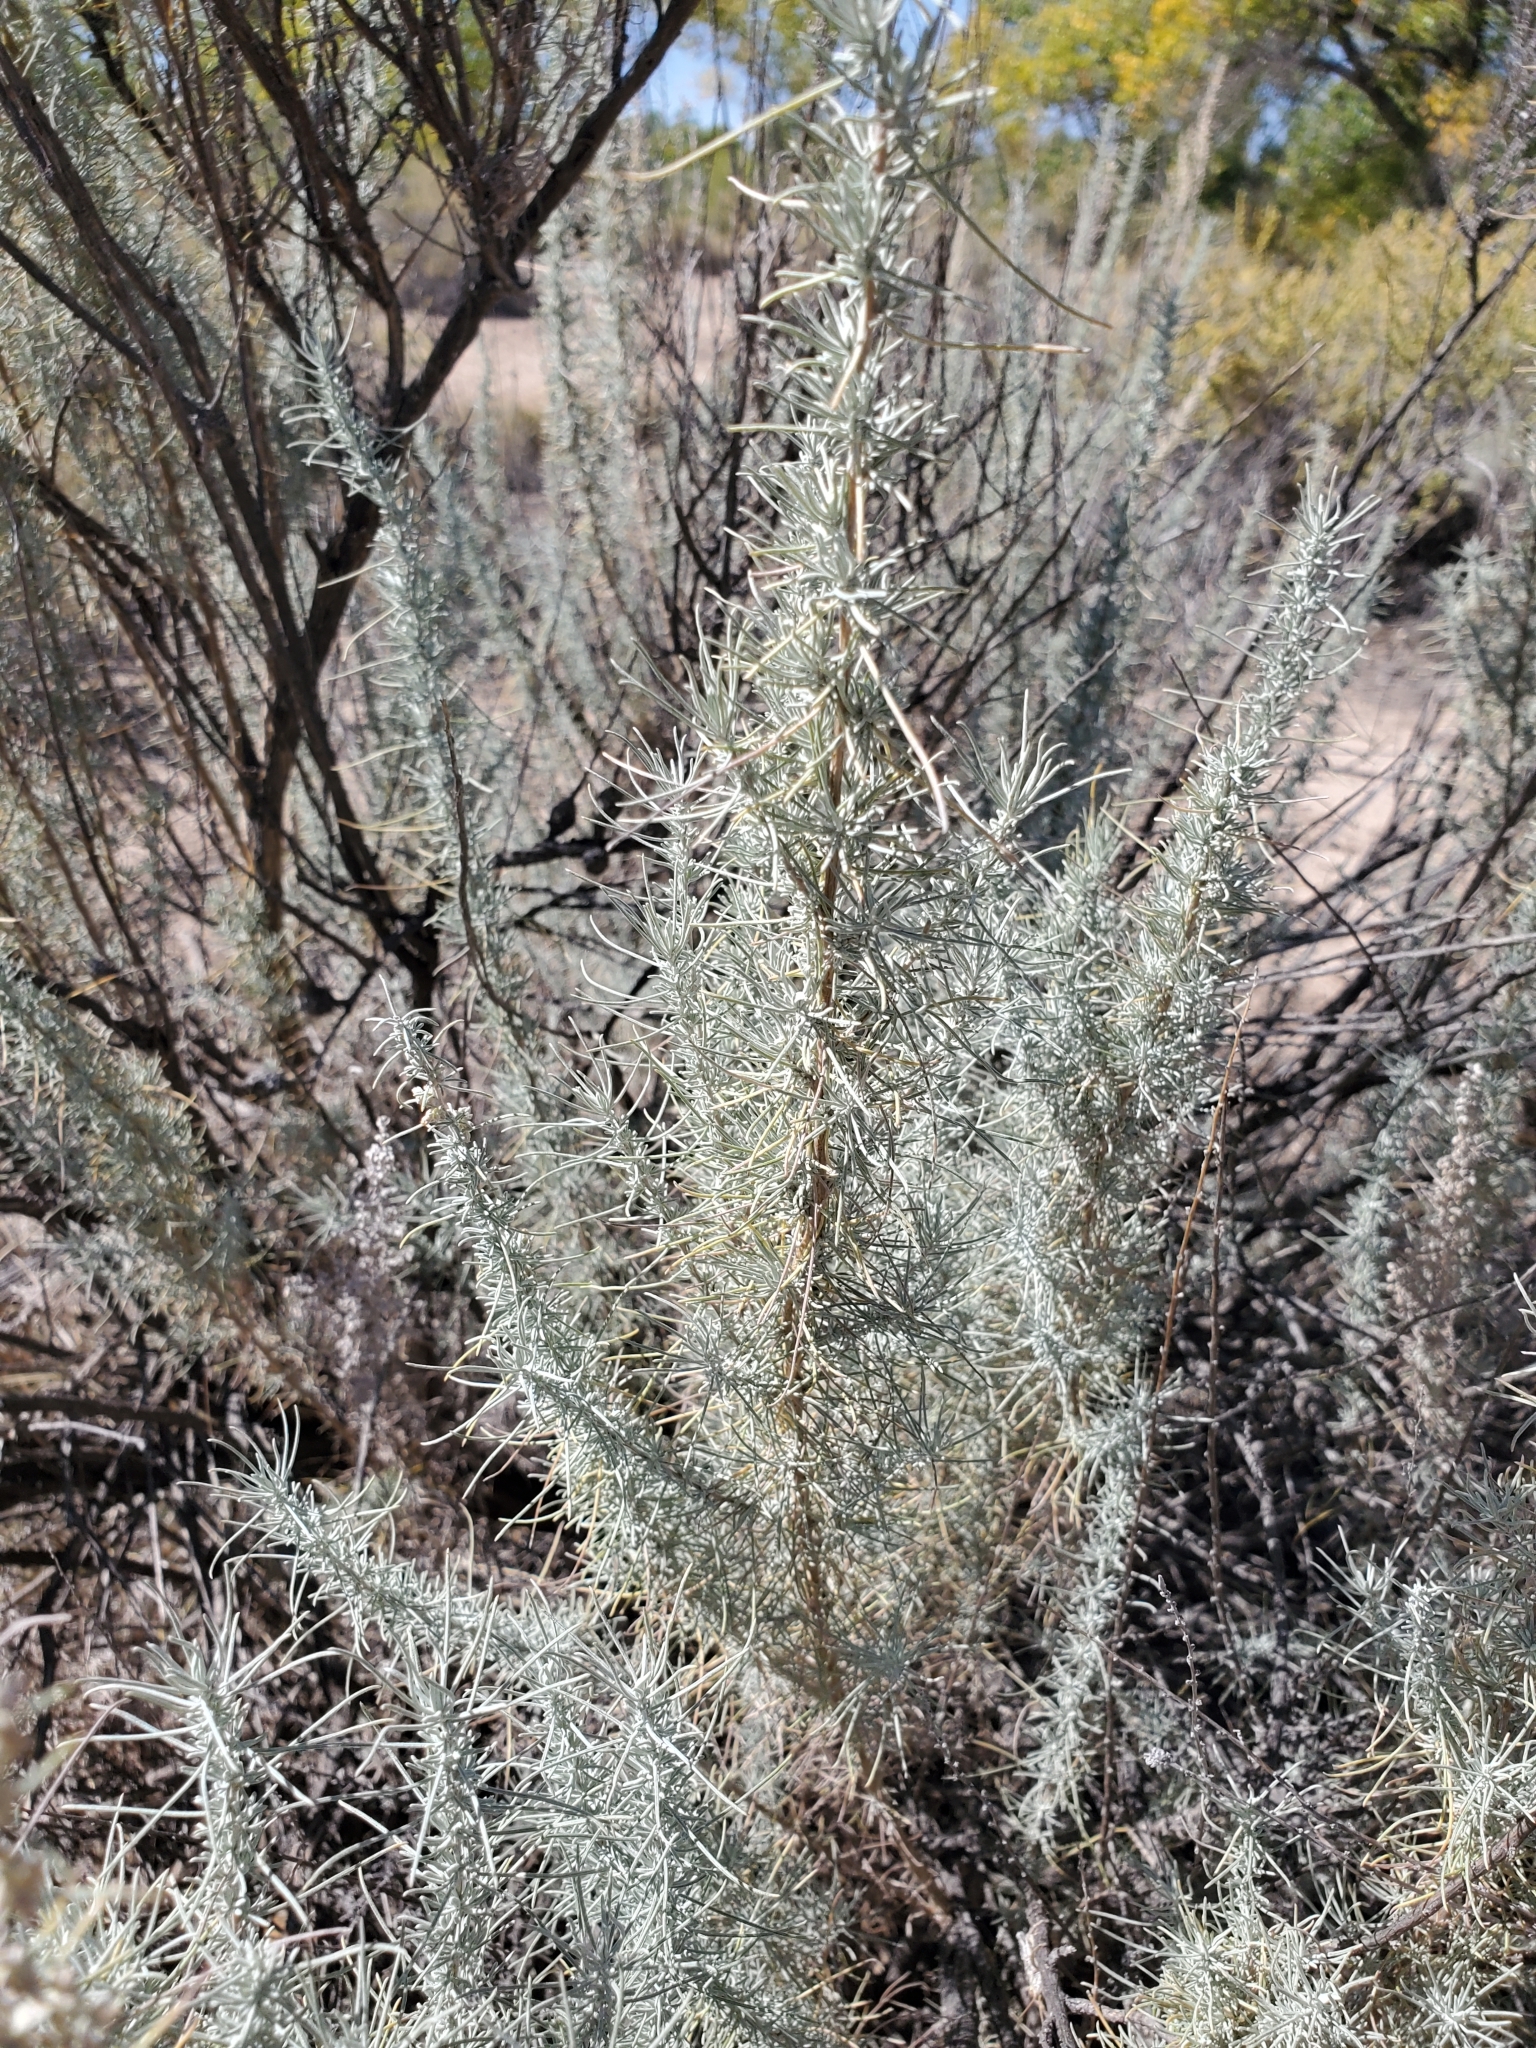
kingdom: Plantae
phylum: Tracheophyta
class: Magnoliopsida
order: Asterales
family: Asteraceae
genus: Artemisia
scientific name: Artemisia filifolia
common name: Sand-sage
